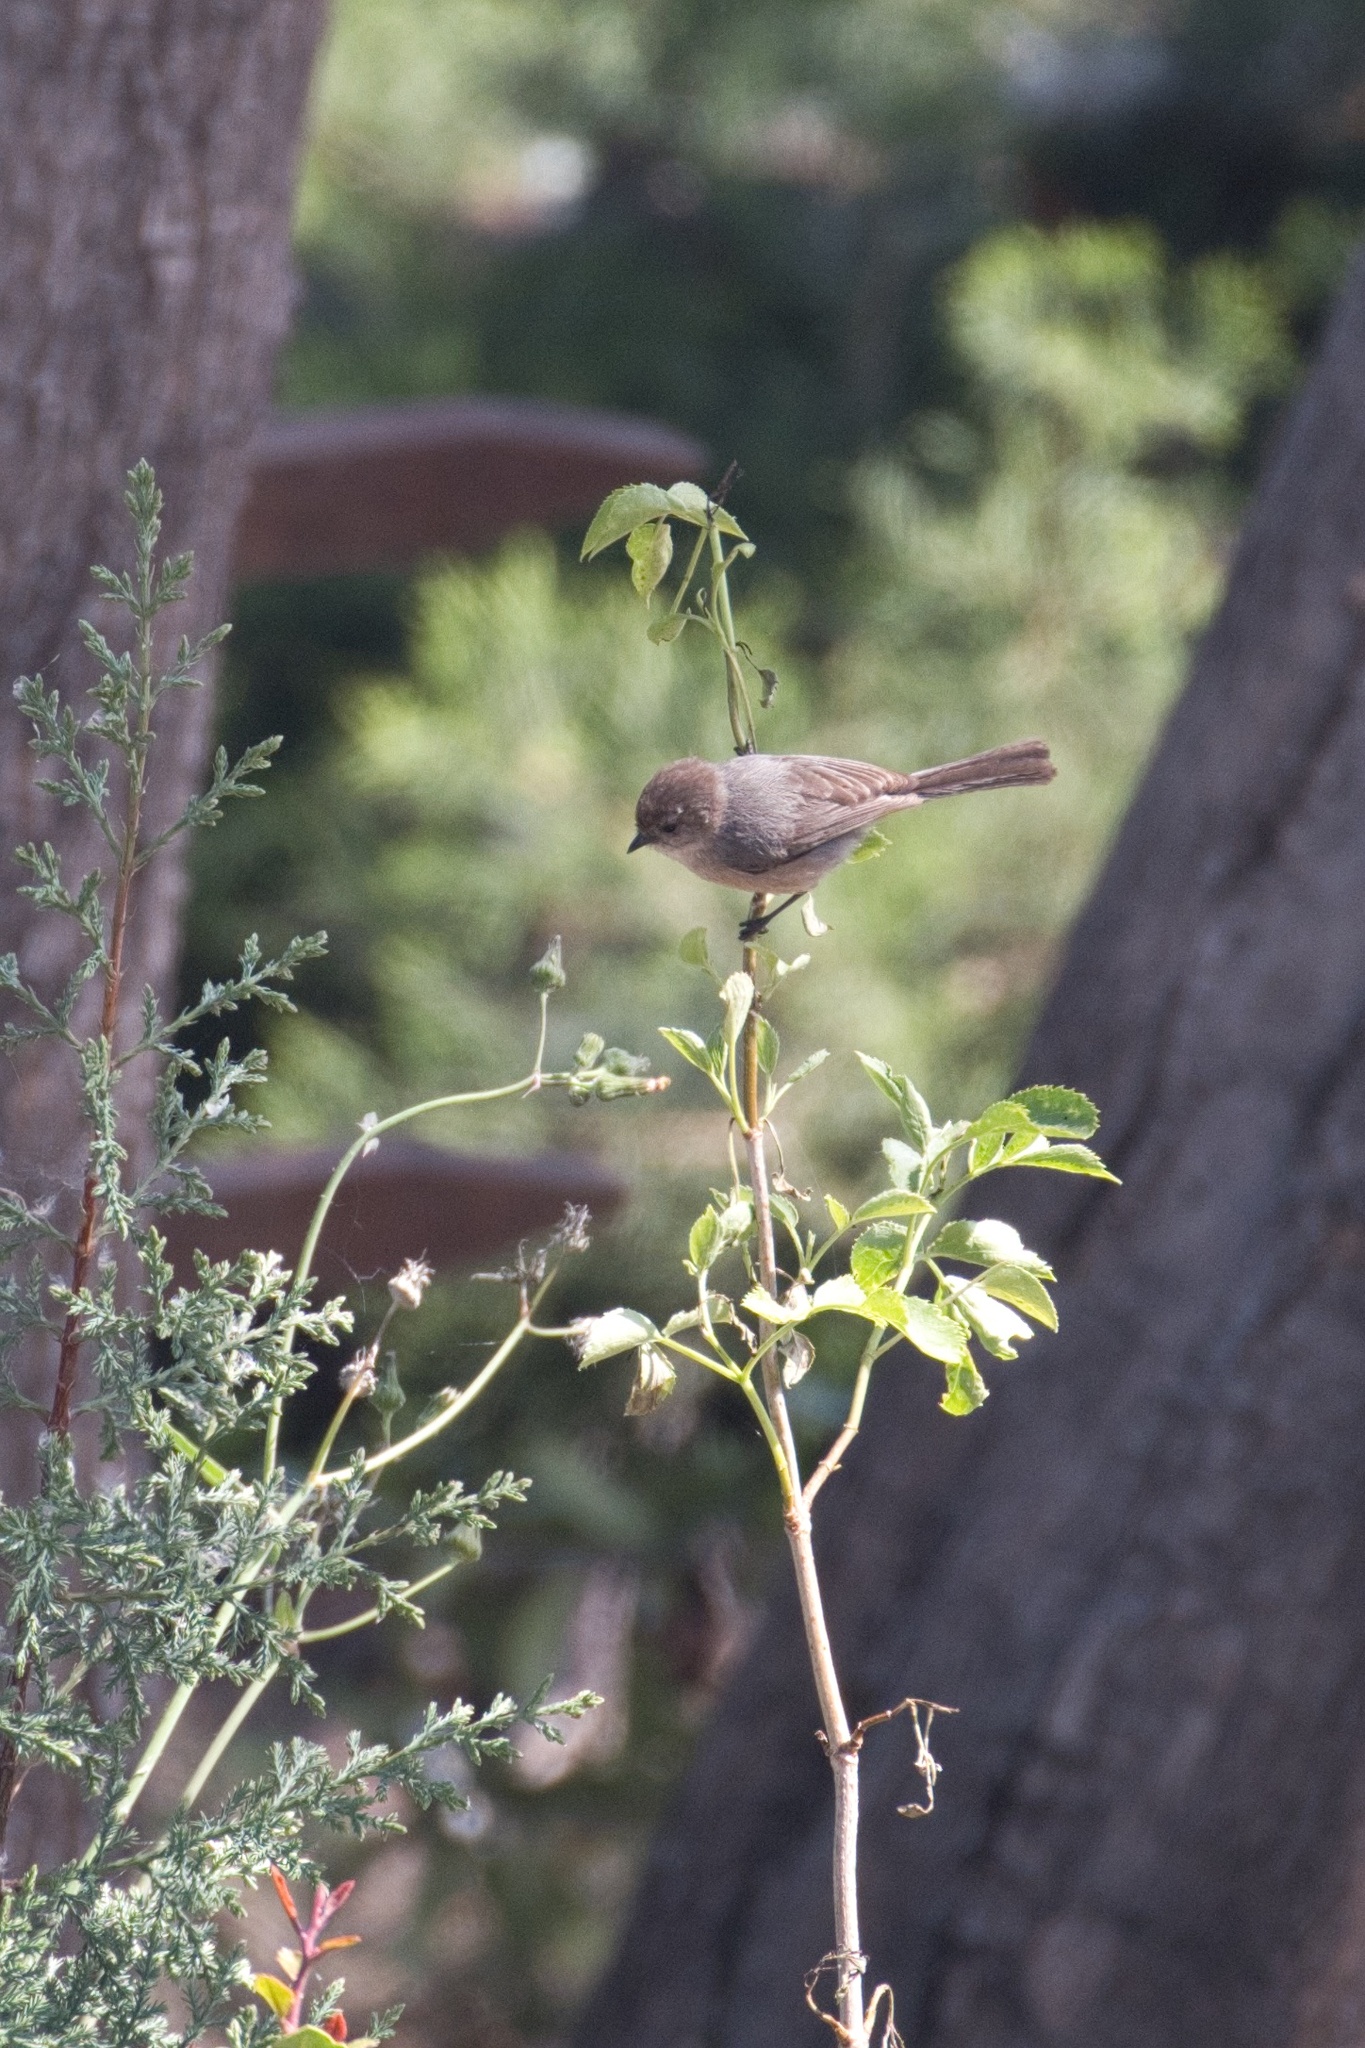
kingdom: Animalia
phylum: Chordata
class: Aves
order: Passeriformes
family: Aegithalidae
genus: Psaltriparus
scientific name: Psaltriparus minimus
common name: American bushtit
